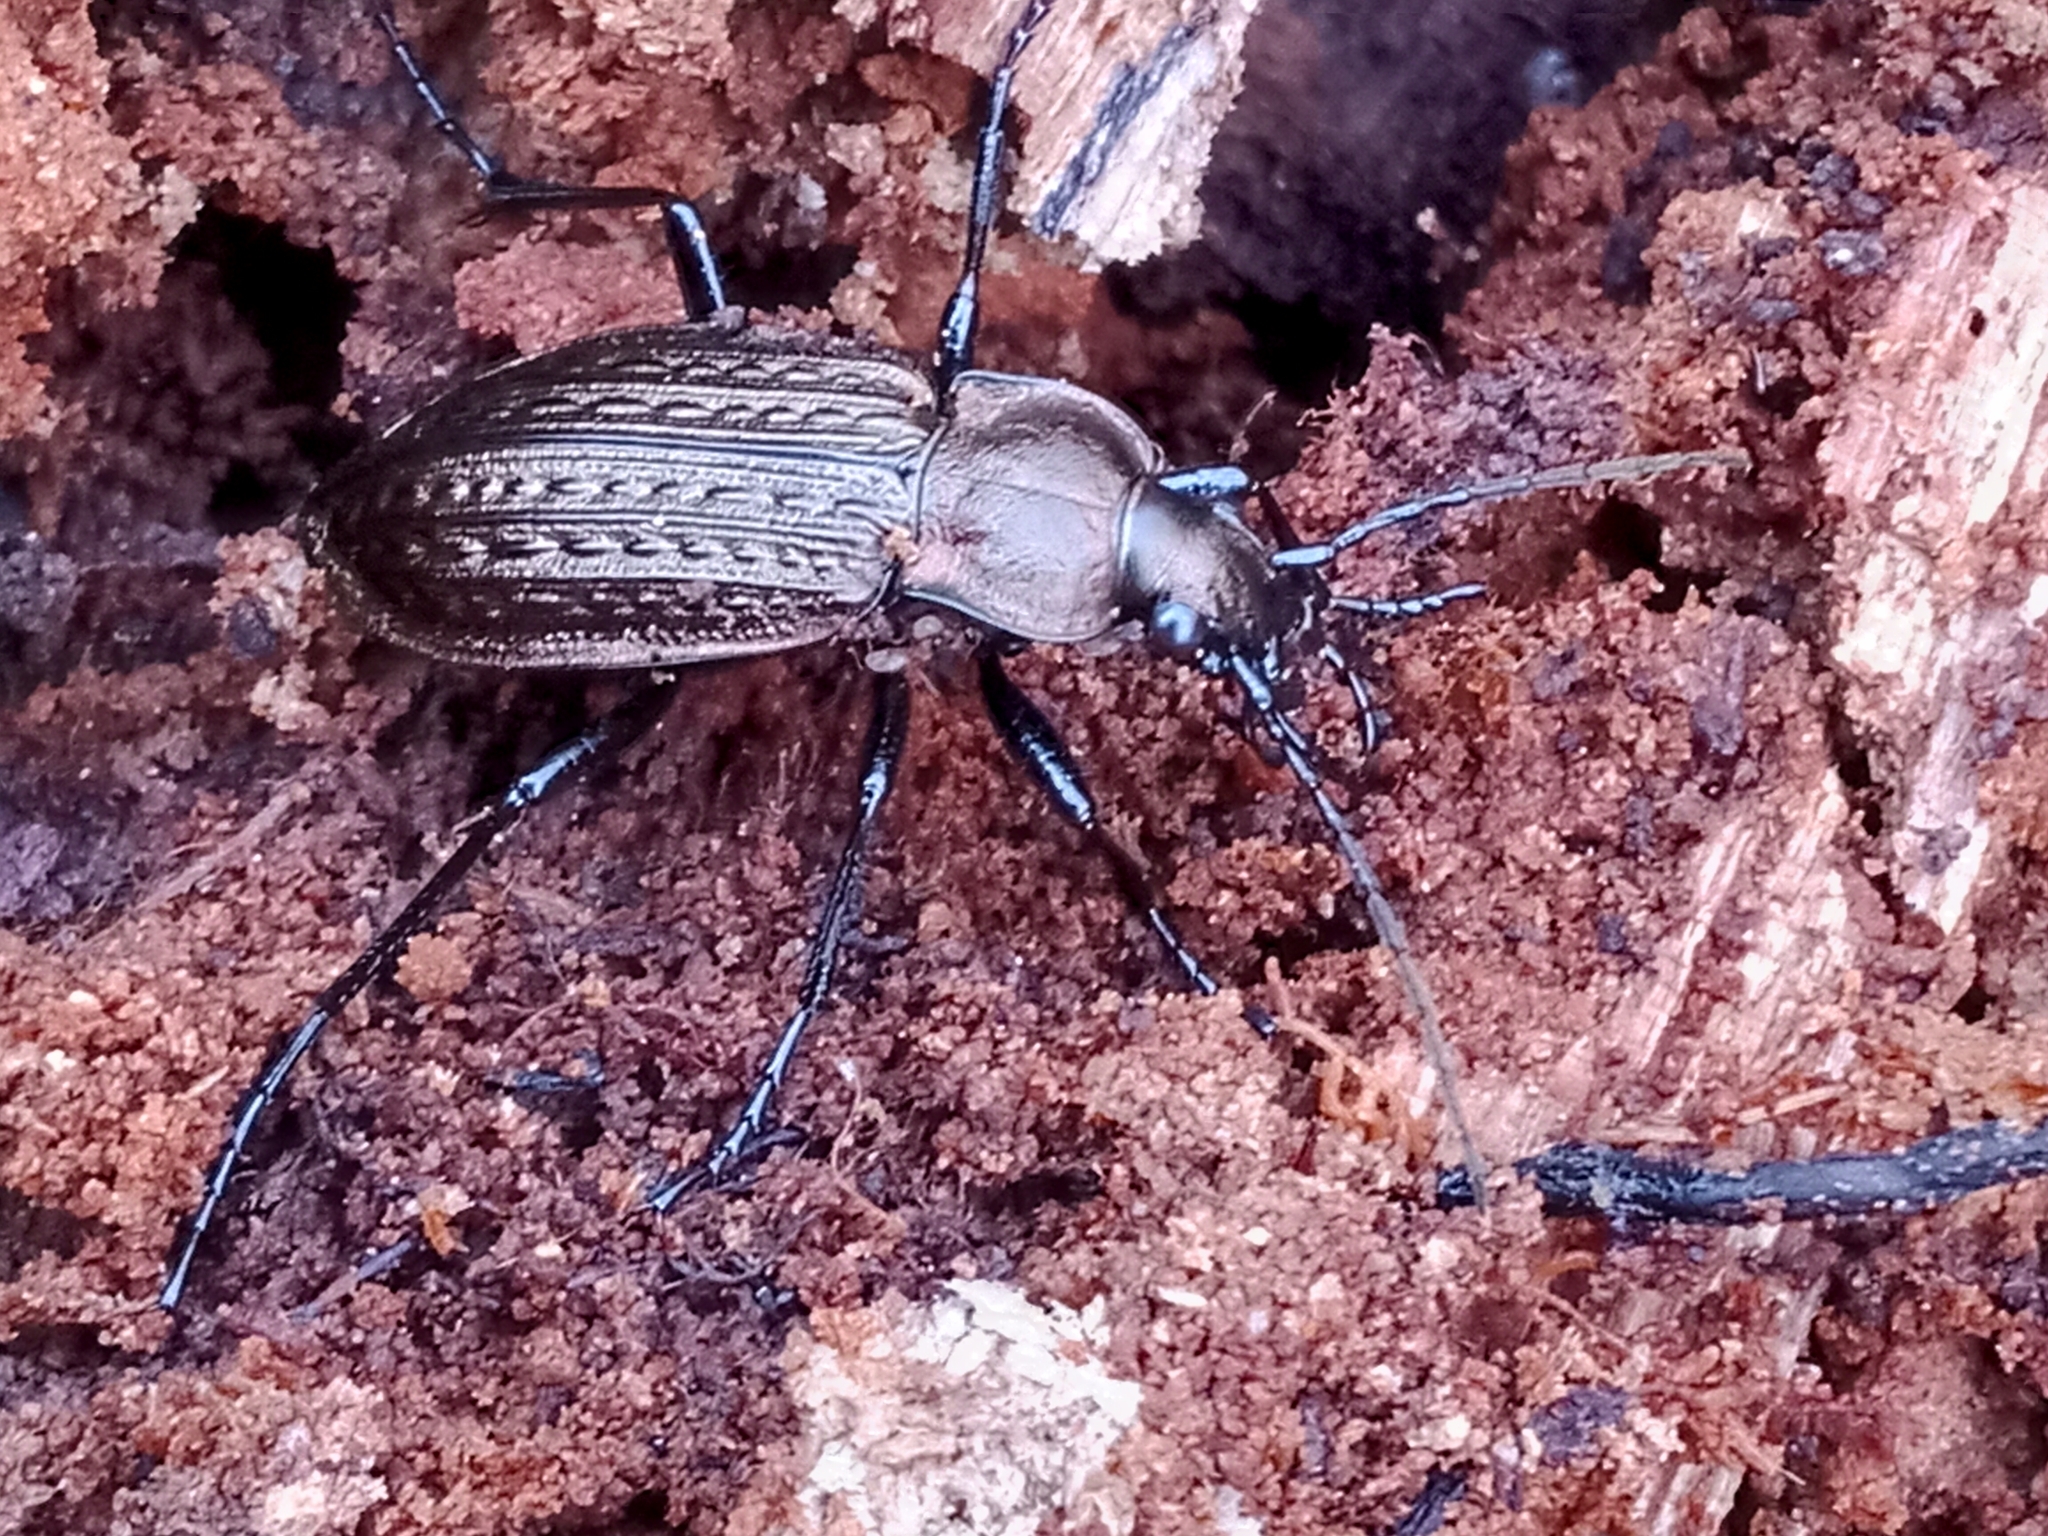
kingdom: Animalia
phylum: Arthropoda
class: Insecta
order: Coleoptera
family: Carabidae
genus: Carabus
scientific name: Carabus granulatus
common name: Granulate ground beetle
